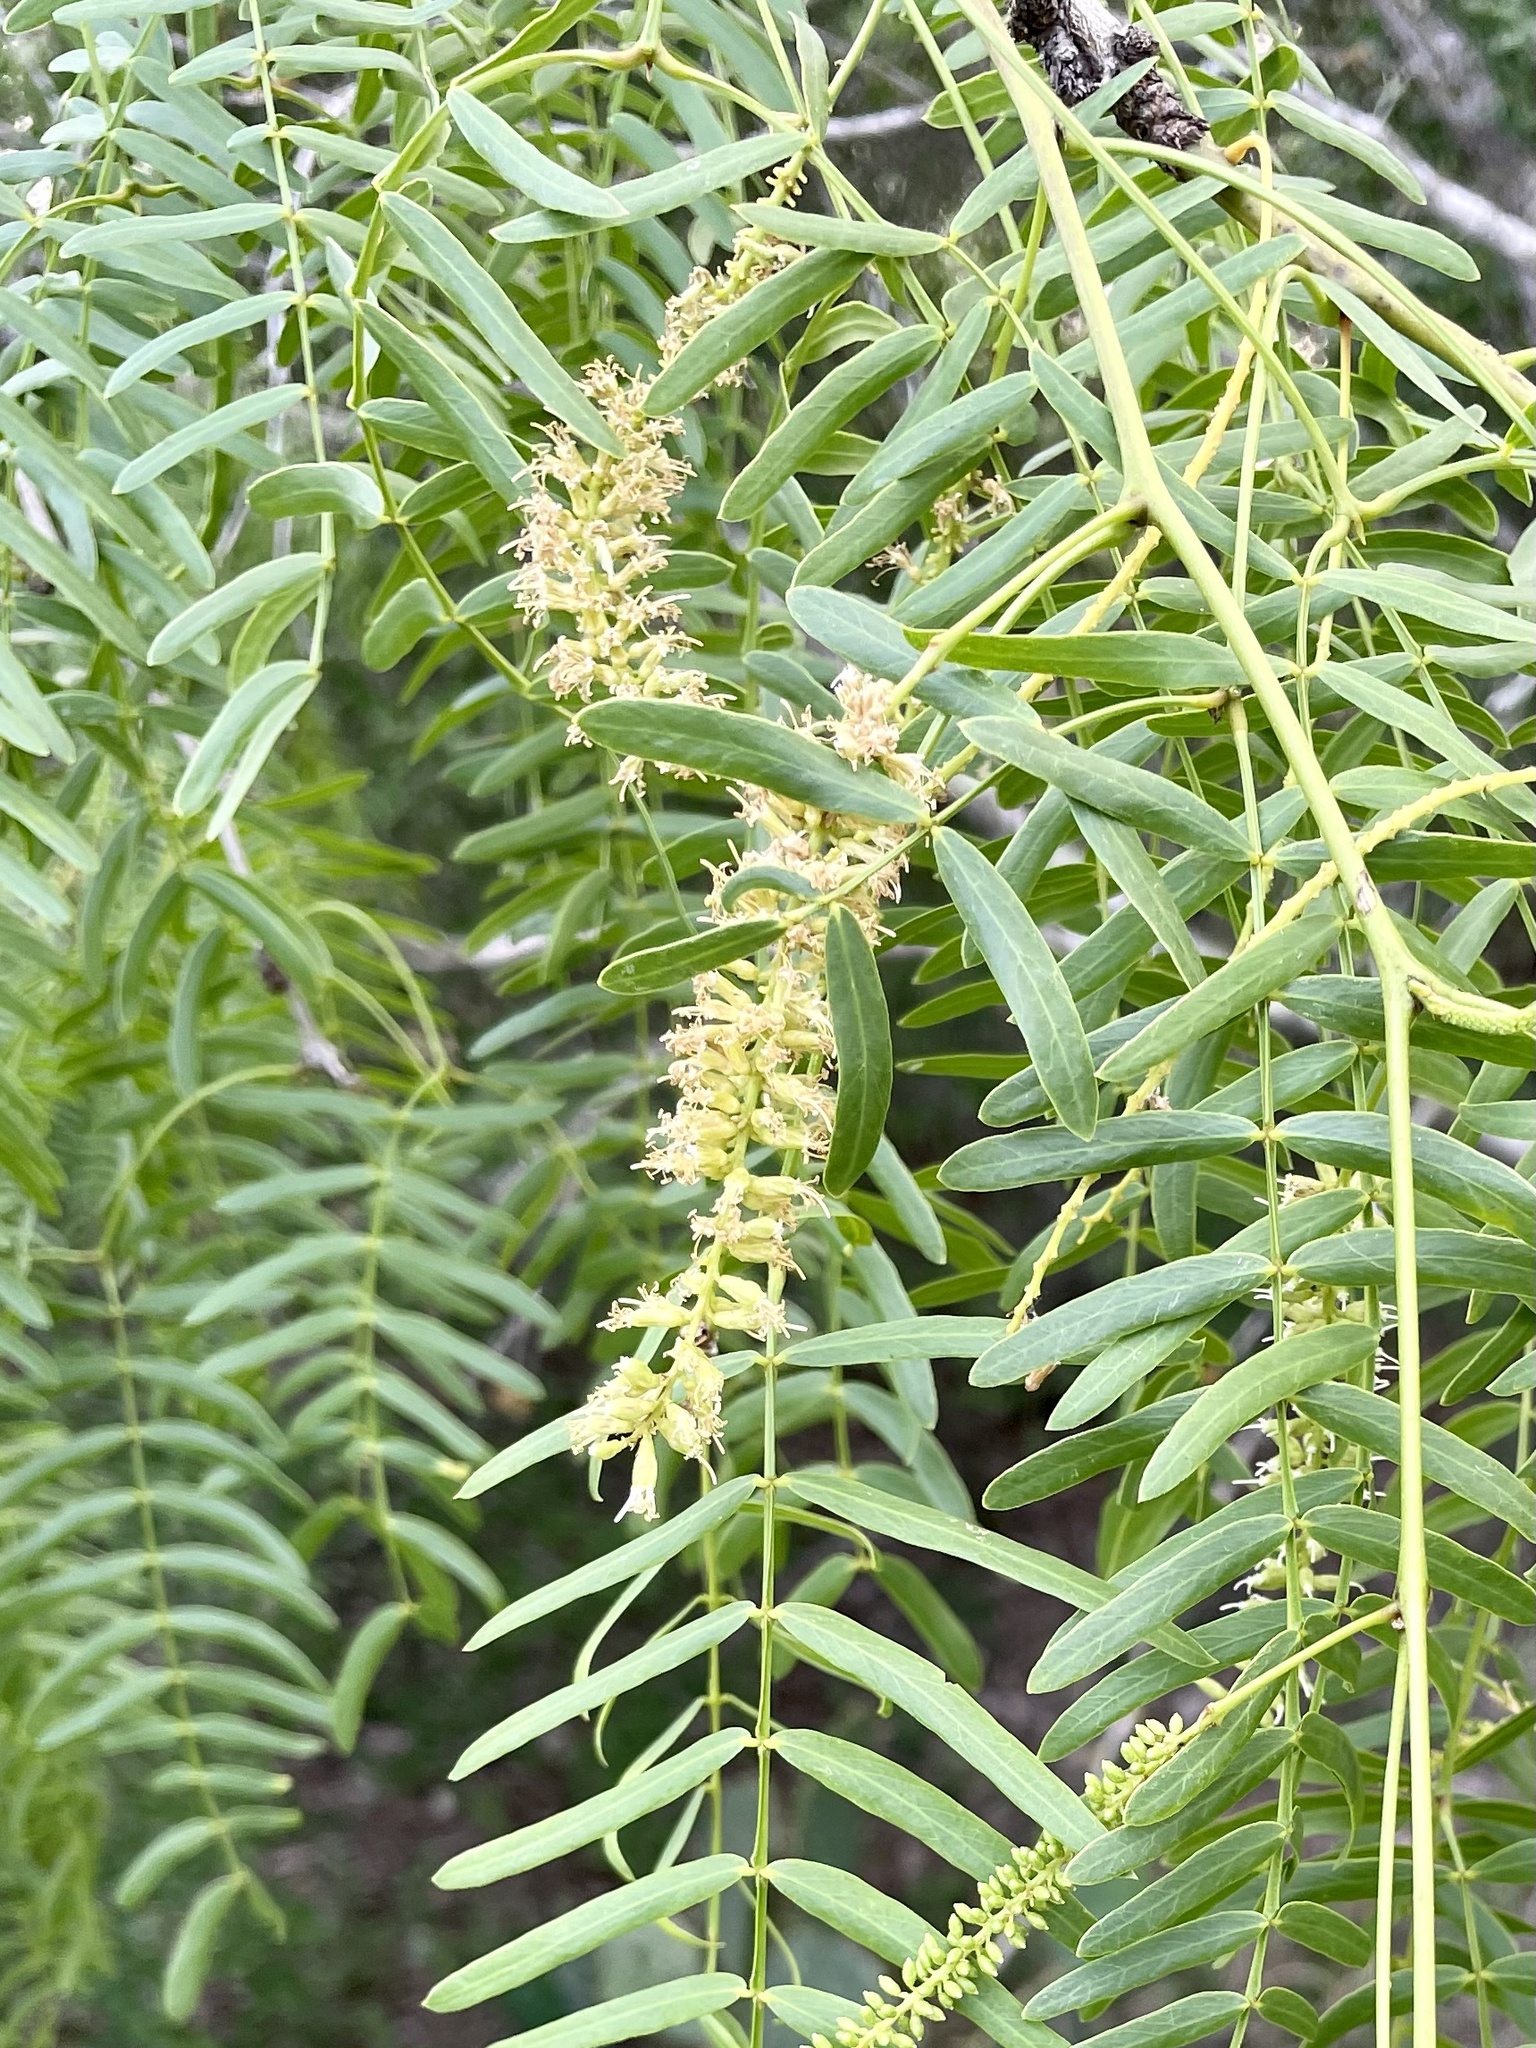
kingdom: Plantae
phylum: Tracheophyta
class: Magnoliopsida
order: Fabales
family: Fabaceae
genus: Prosopis
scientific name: Prosopis glandulosa
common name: Honey mesquite
